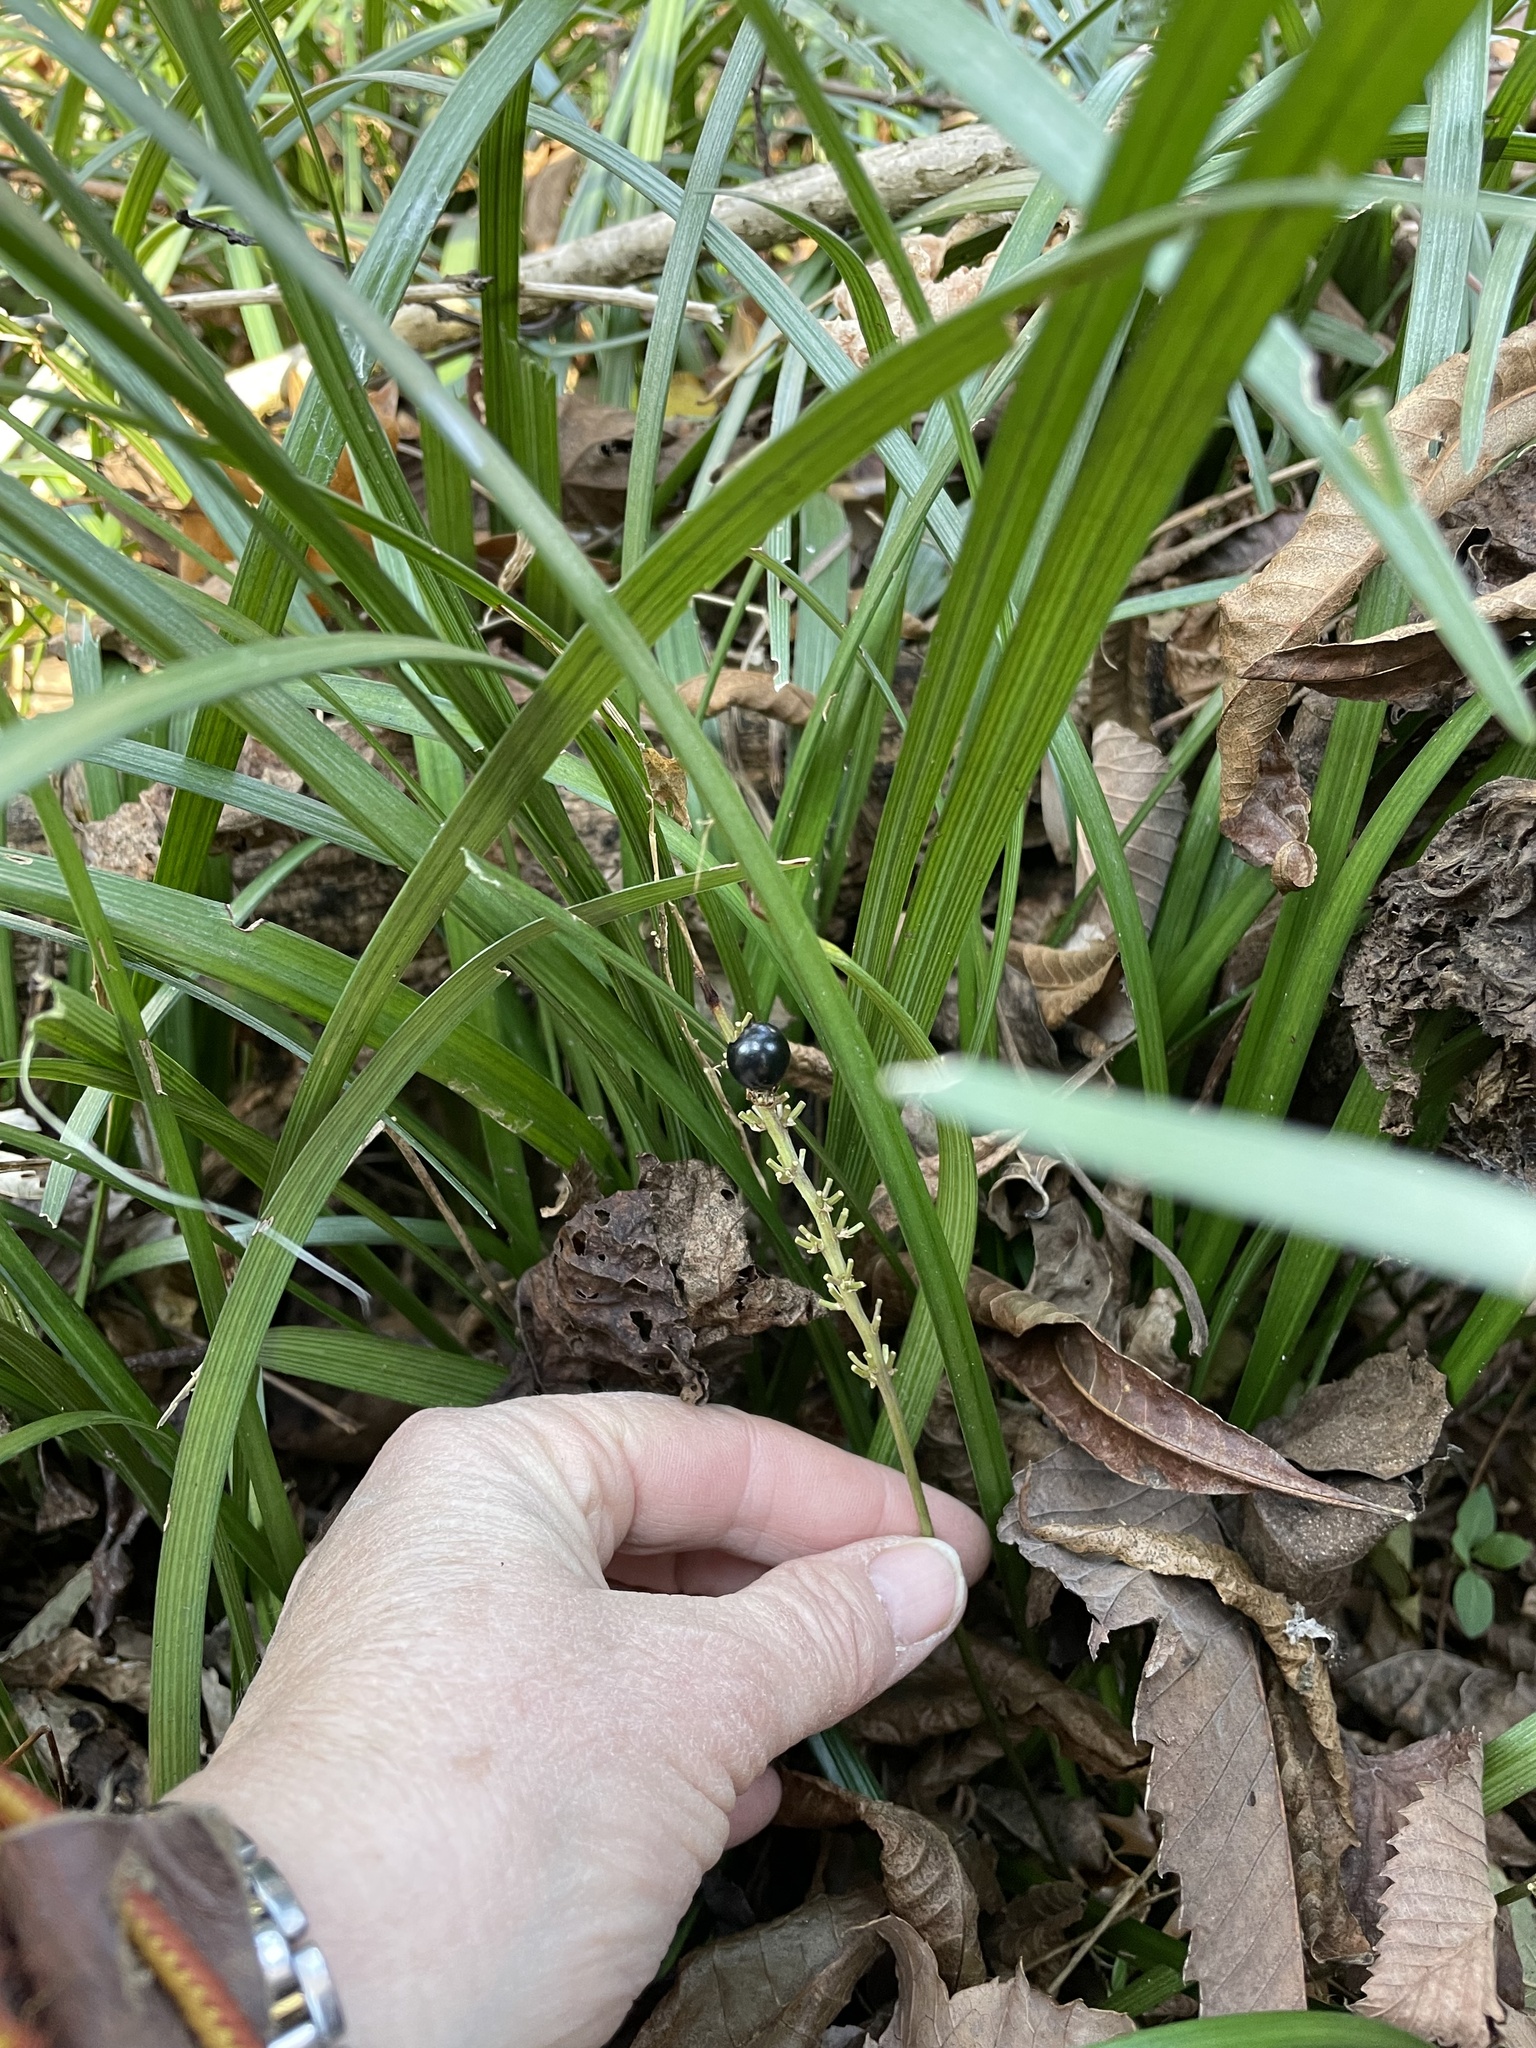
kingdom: Plantae
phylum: Tracheophyta
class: Liliopsida
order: Asparagales
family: Asparagaceae
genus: Liriope
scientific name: Liriope muscari
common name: Big blue lilyturf
